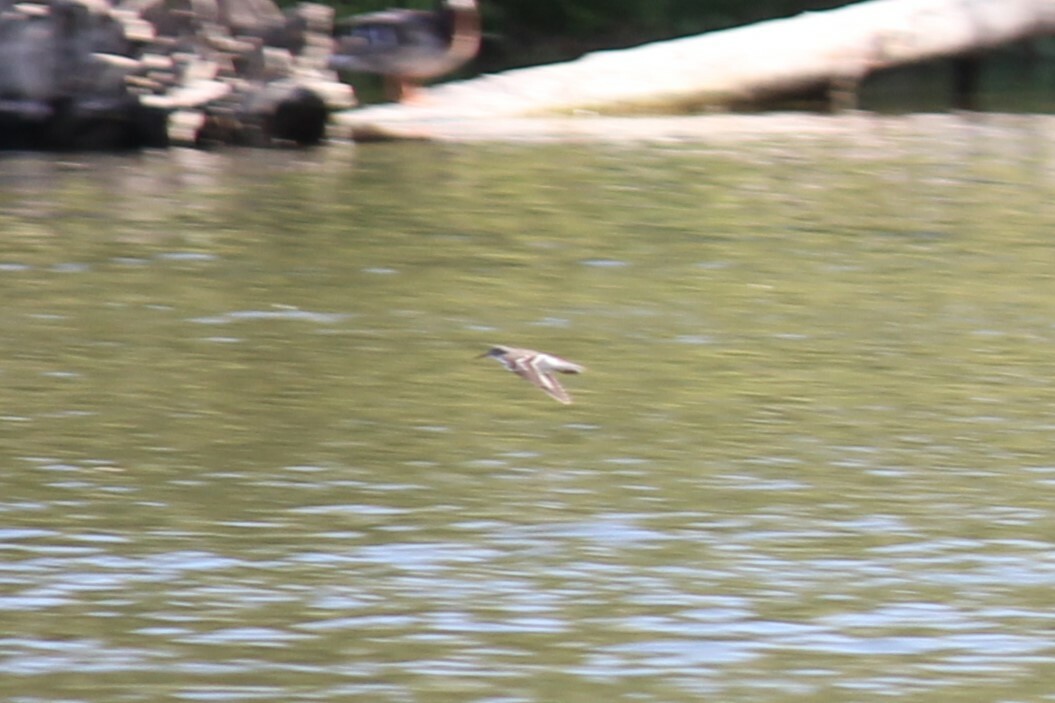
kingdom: Animalia
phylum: Chordata
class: Aves
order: Charadriiformes
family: Scolopacidae
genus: Actitis
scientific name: Actitis macularius
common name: Spotted sandpiper
